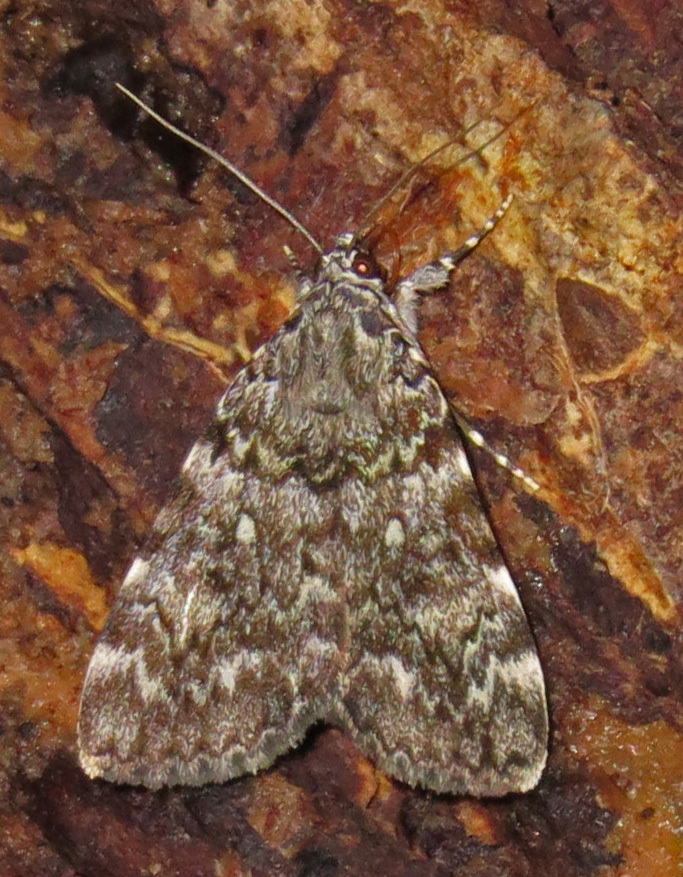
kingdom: Animalia
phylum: Arthropoda
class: Insecta
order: Lepidoptera
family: Erebidae
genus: Catocala
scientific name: Catocala lineella
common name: Little lined underwing
